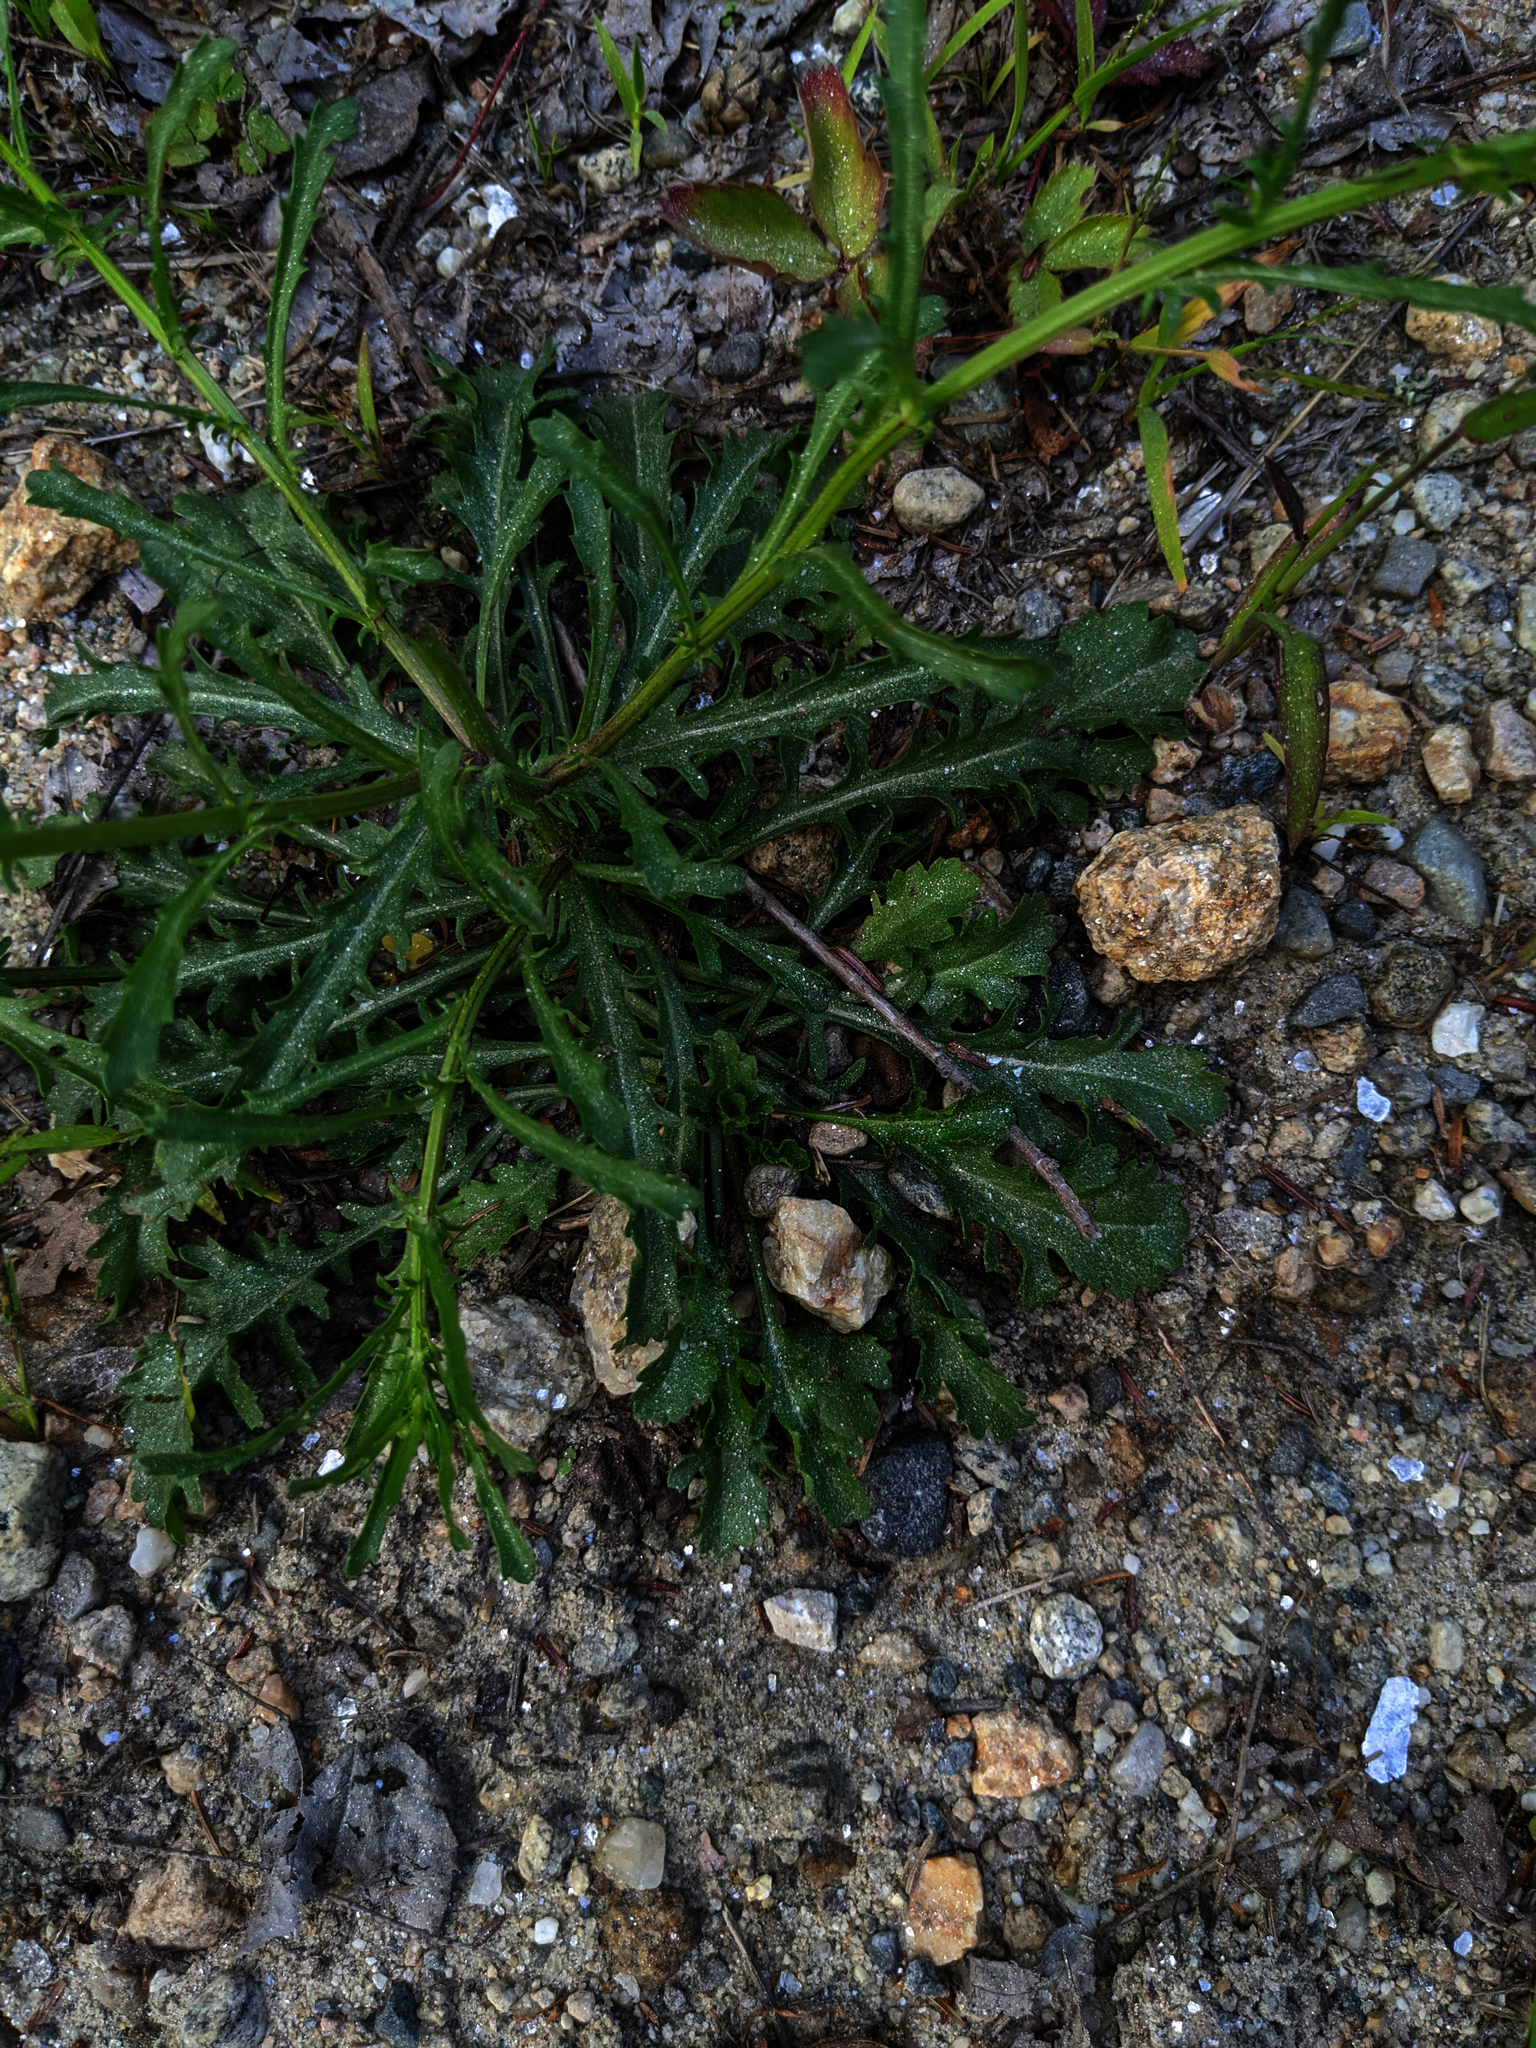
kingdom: Plantae
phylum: Tracheophyta
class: Magnoliopsida
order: Asterales
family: Asteraceae
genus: Tripleurospermum
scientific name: Tripleurospermum inodorum
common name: Scentless mayweed
